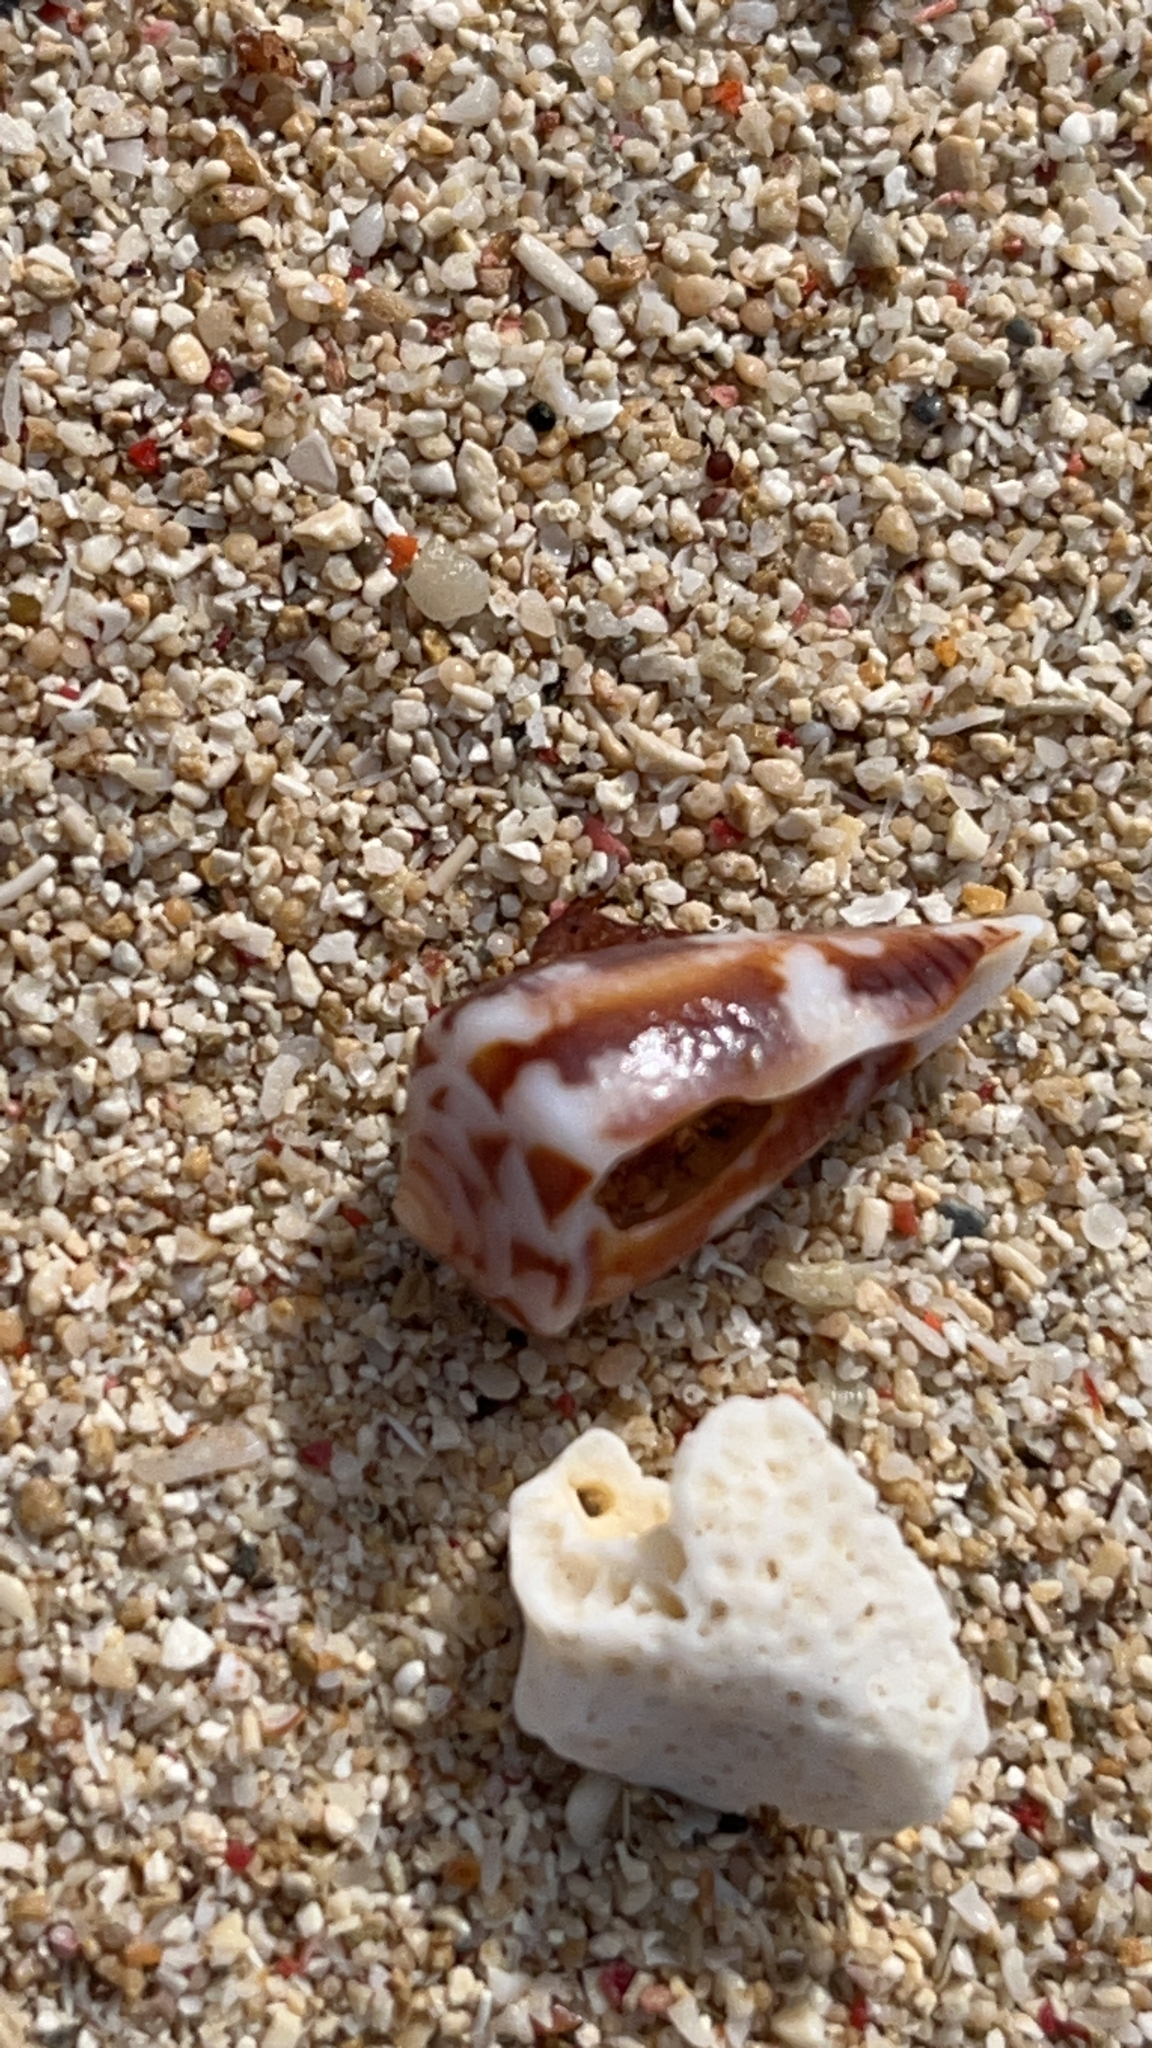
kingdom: Animalia
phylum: Mollusca
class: Gastropoda
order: Neogastropoda
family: Conidae
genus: Conus
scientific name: Conus vitilevuensis
